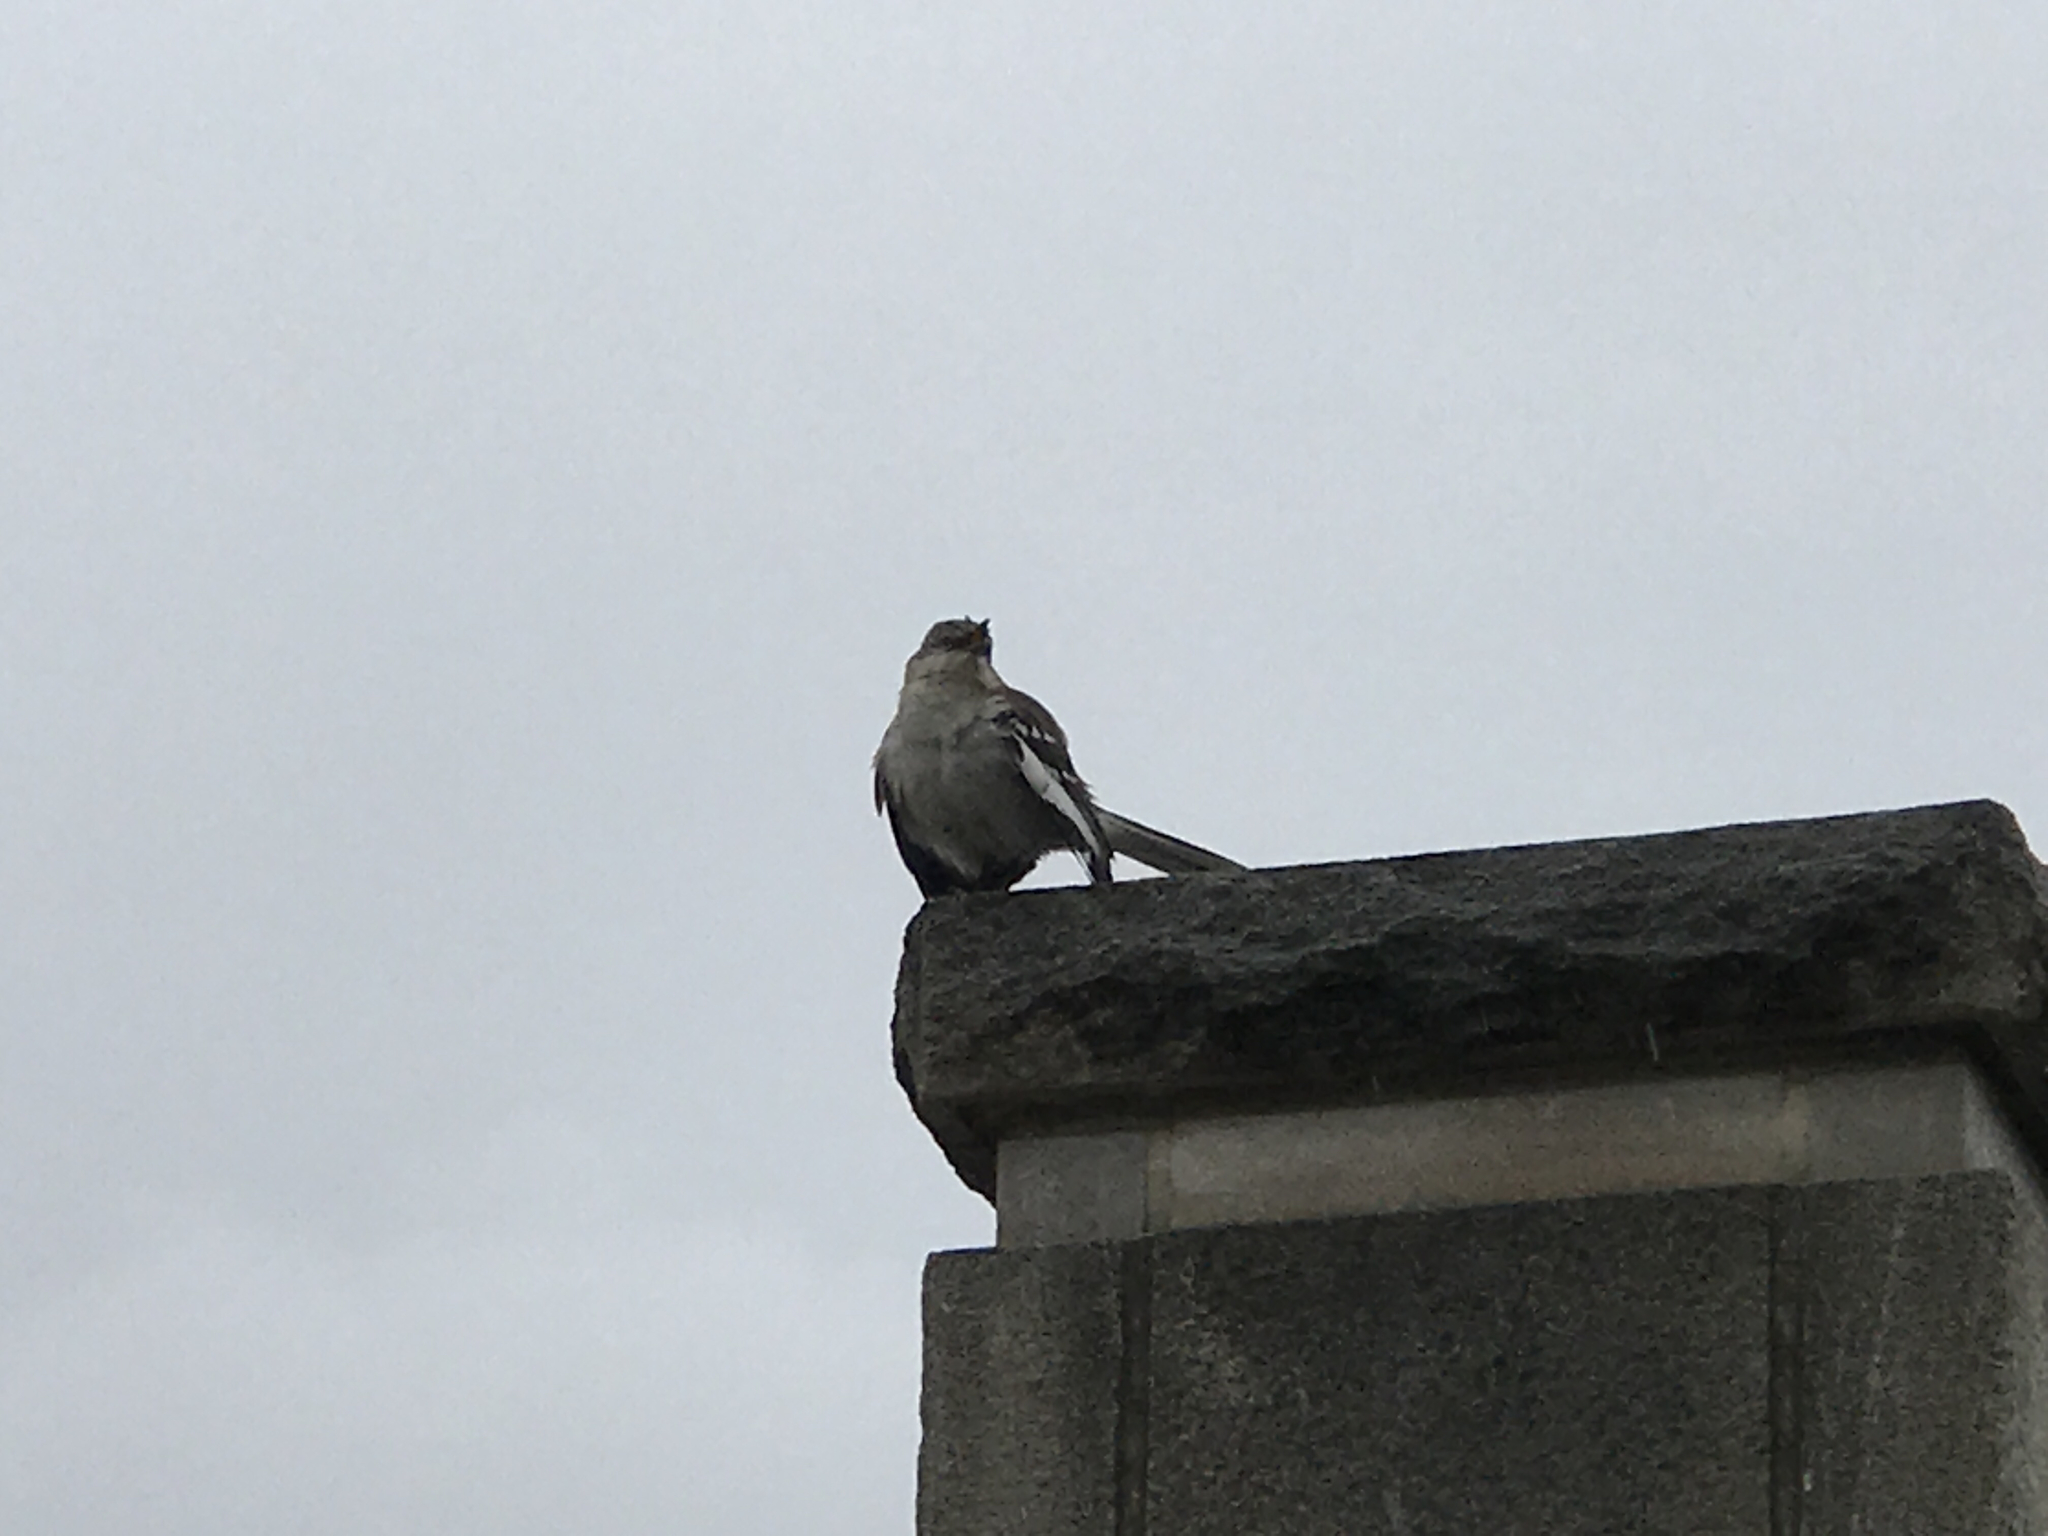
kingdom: Animalia
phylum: Chordata
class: Aves
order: Passeriformes
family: Mimidae
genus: Mimus
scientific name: Mimus polyglottos
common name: Northern mockingbird
